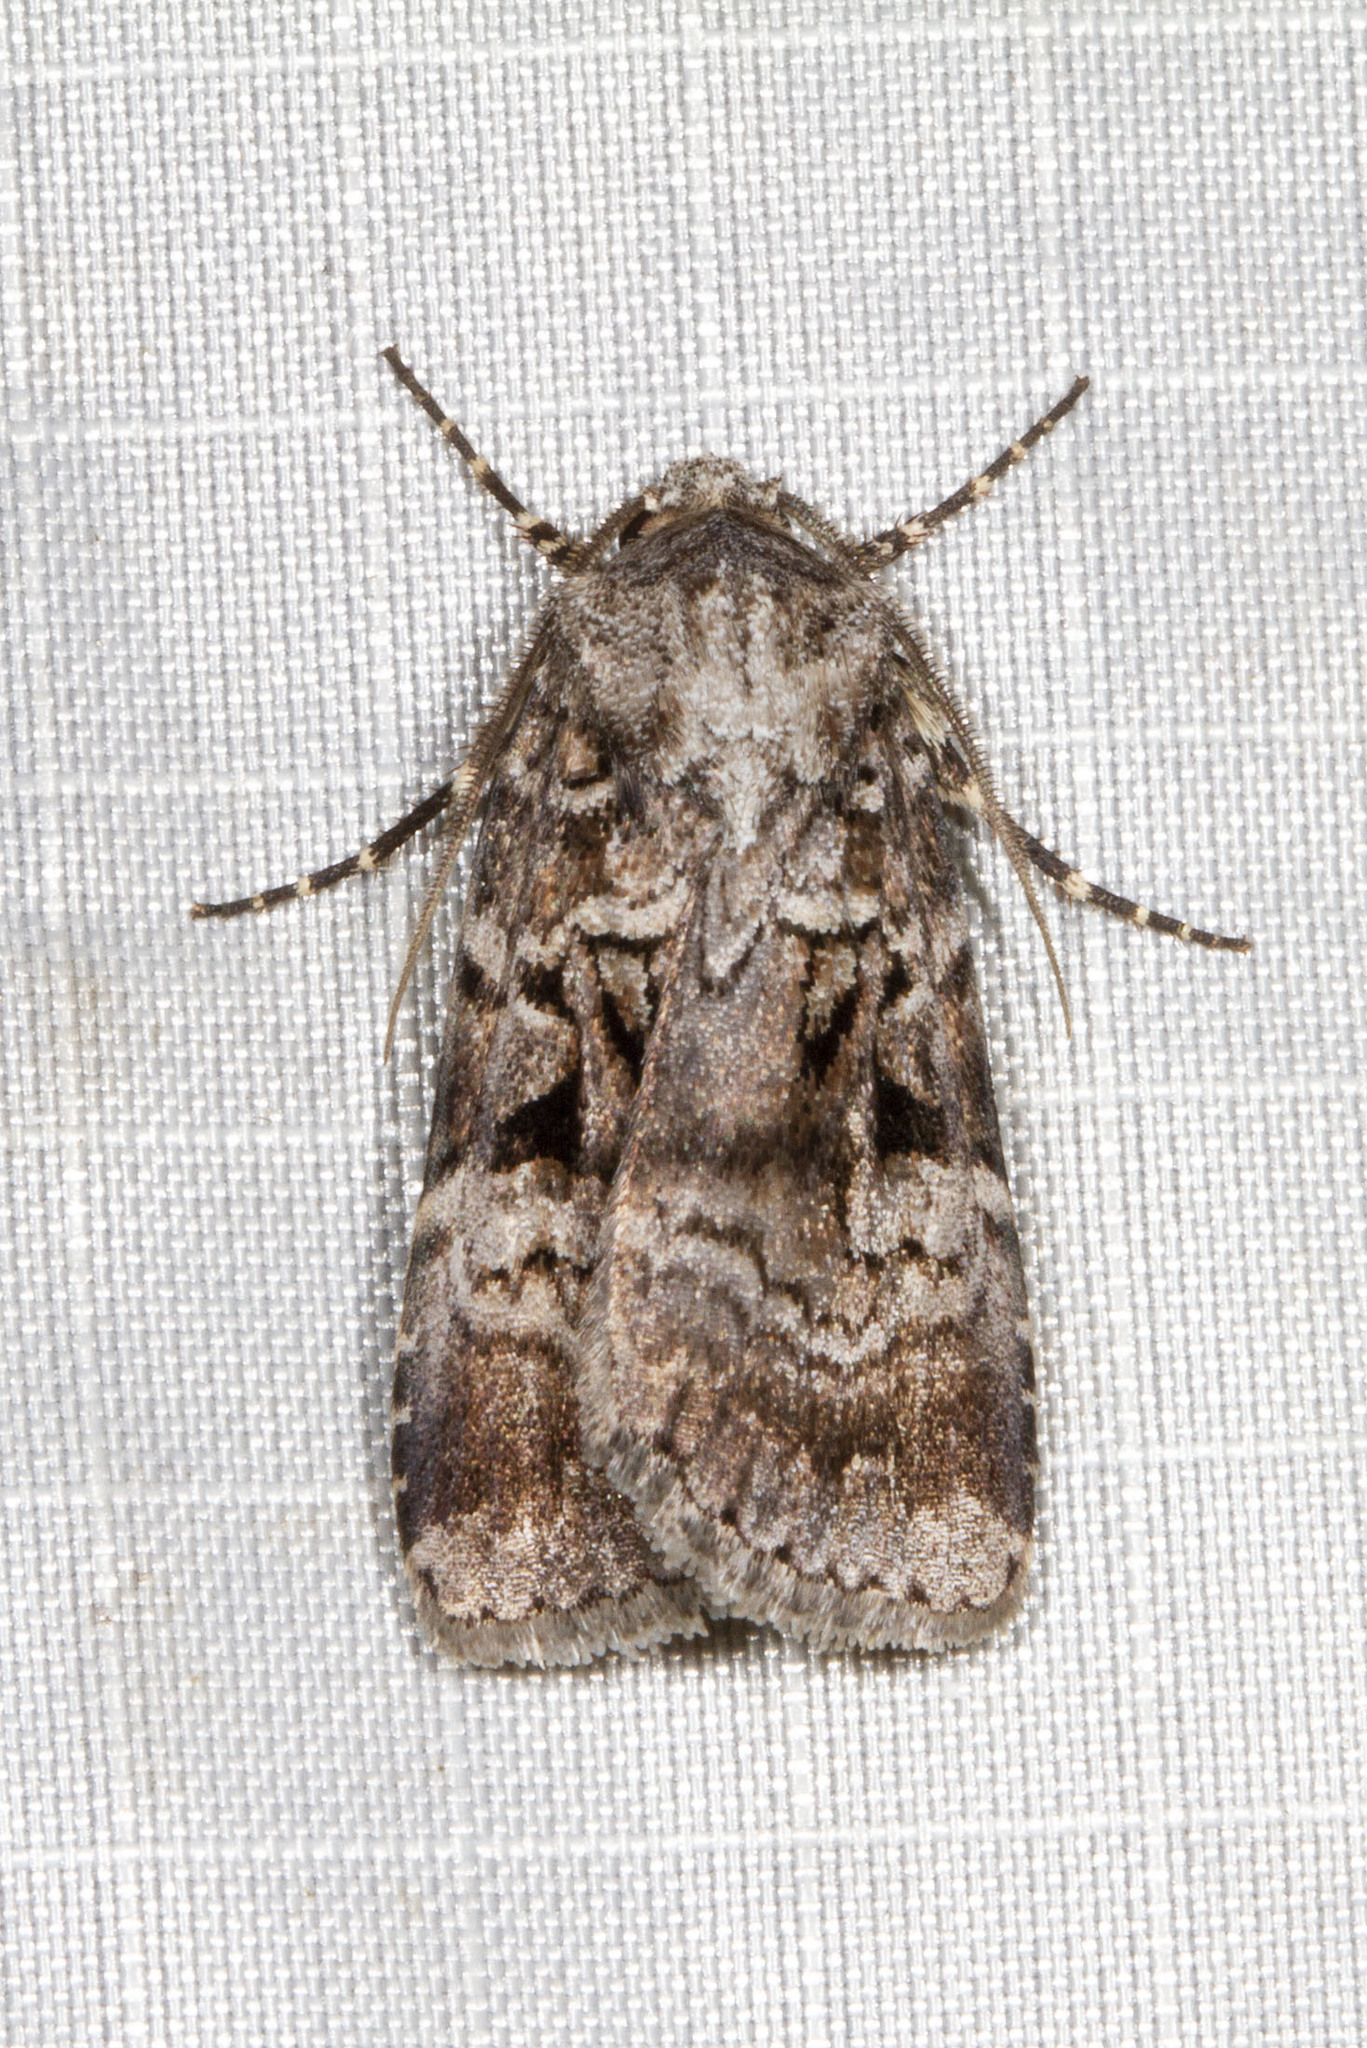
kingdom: Animalia
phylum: Arthropoda
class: Insecta
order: Lepidoptera
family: Noctuidae
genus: Feltia
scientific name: Feltia geniculata
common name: Knee-joint dart
